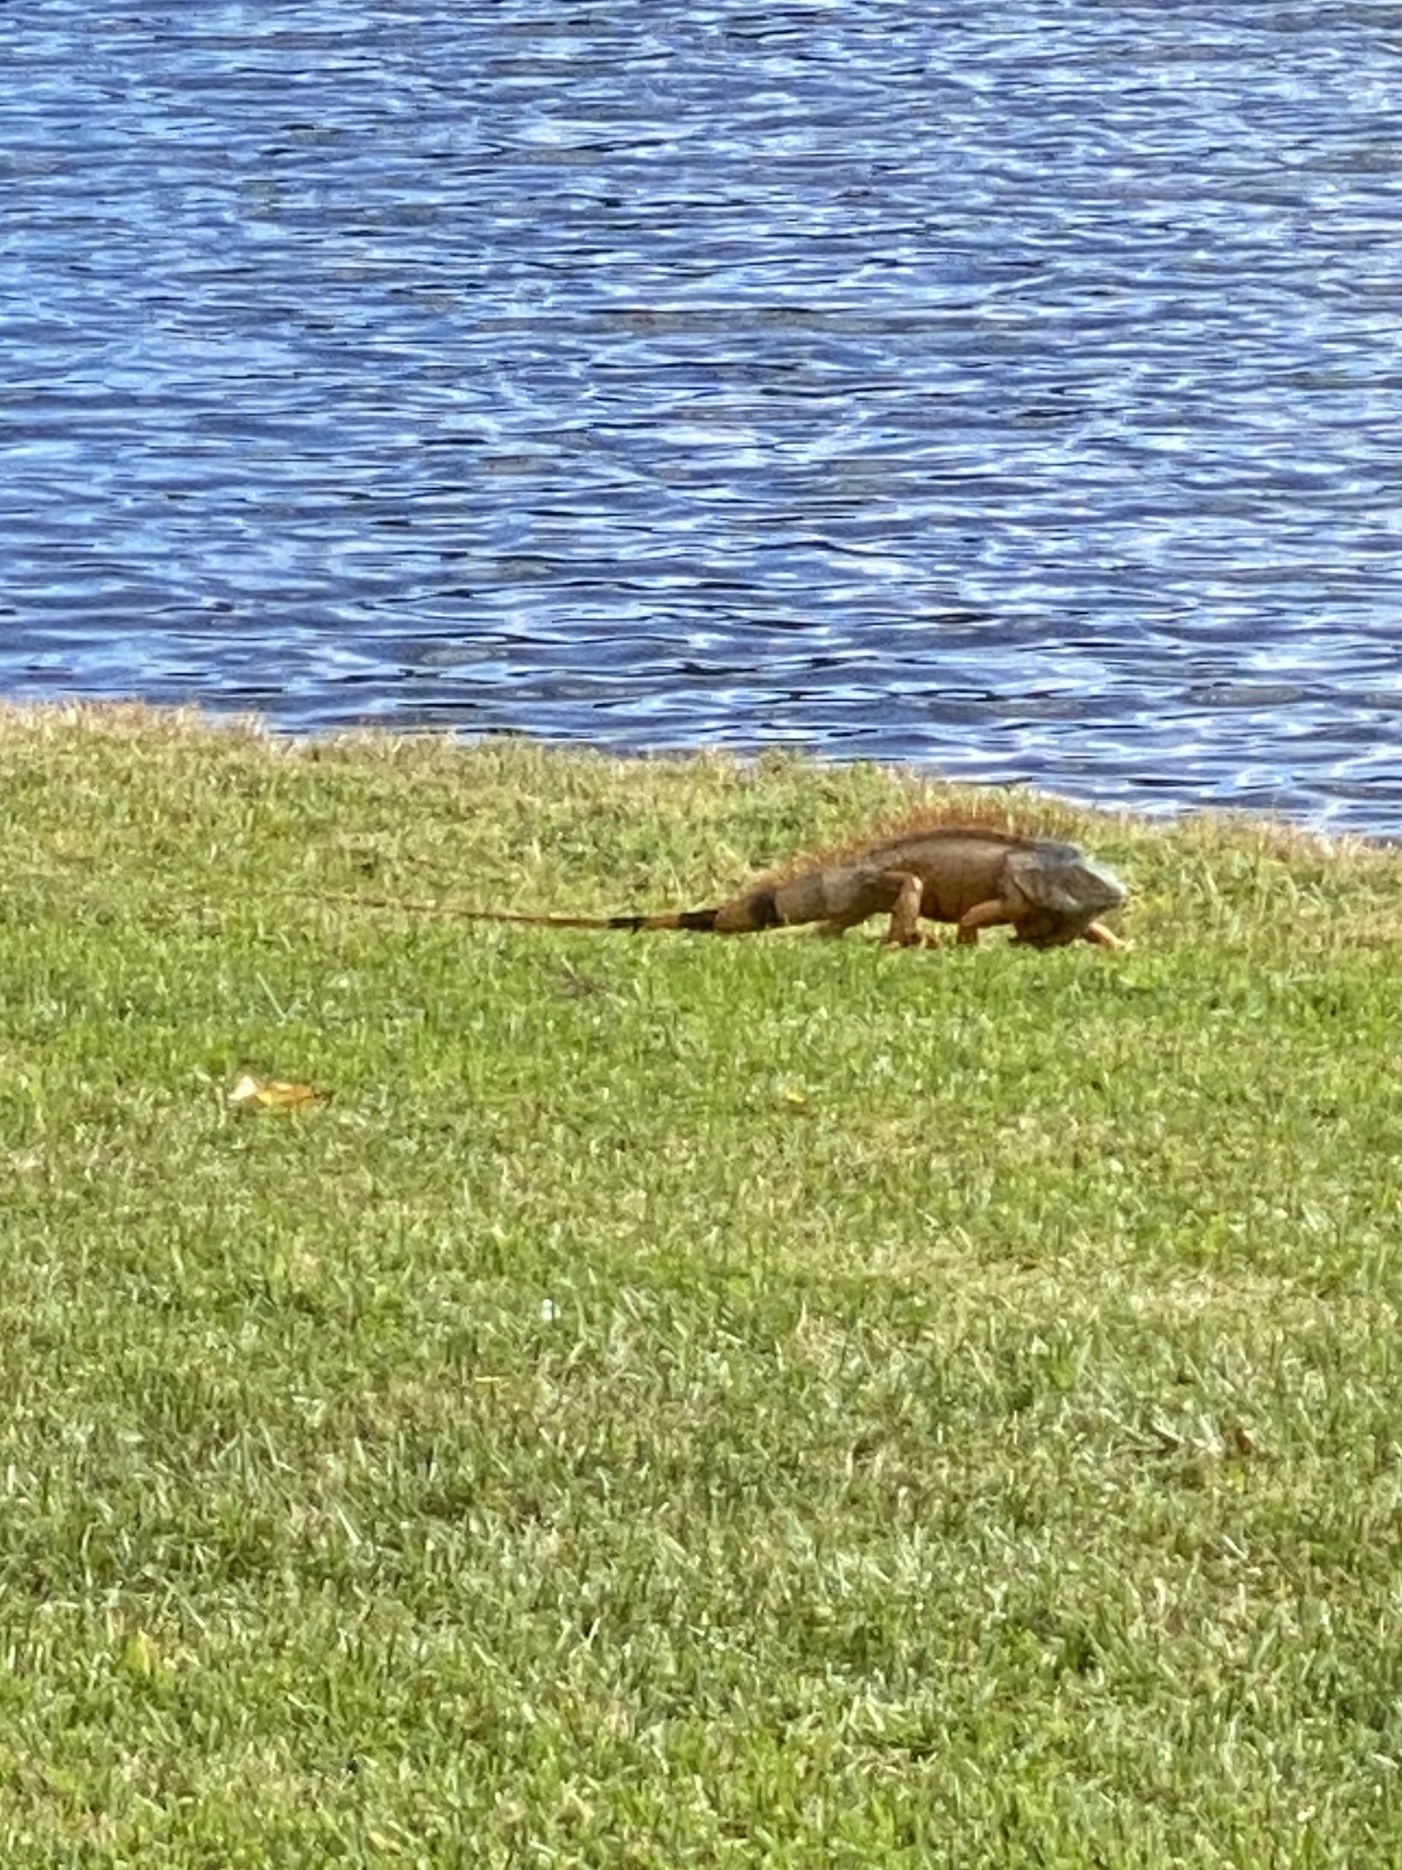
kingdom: Animalia
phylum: Chordata
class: Squamata
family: Iguanidae
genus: Iguana
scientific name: Iguana iguana
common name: Green iguana
